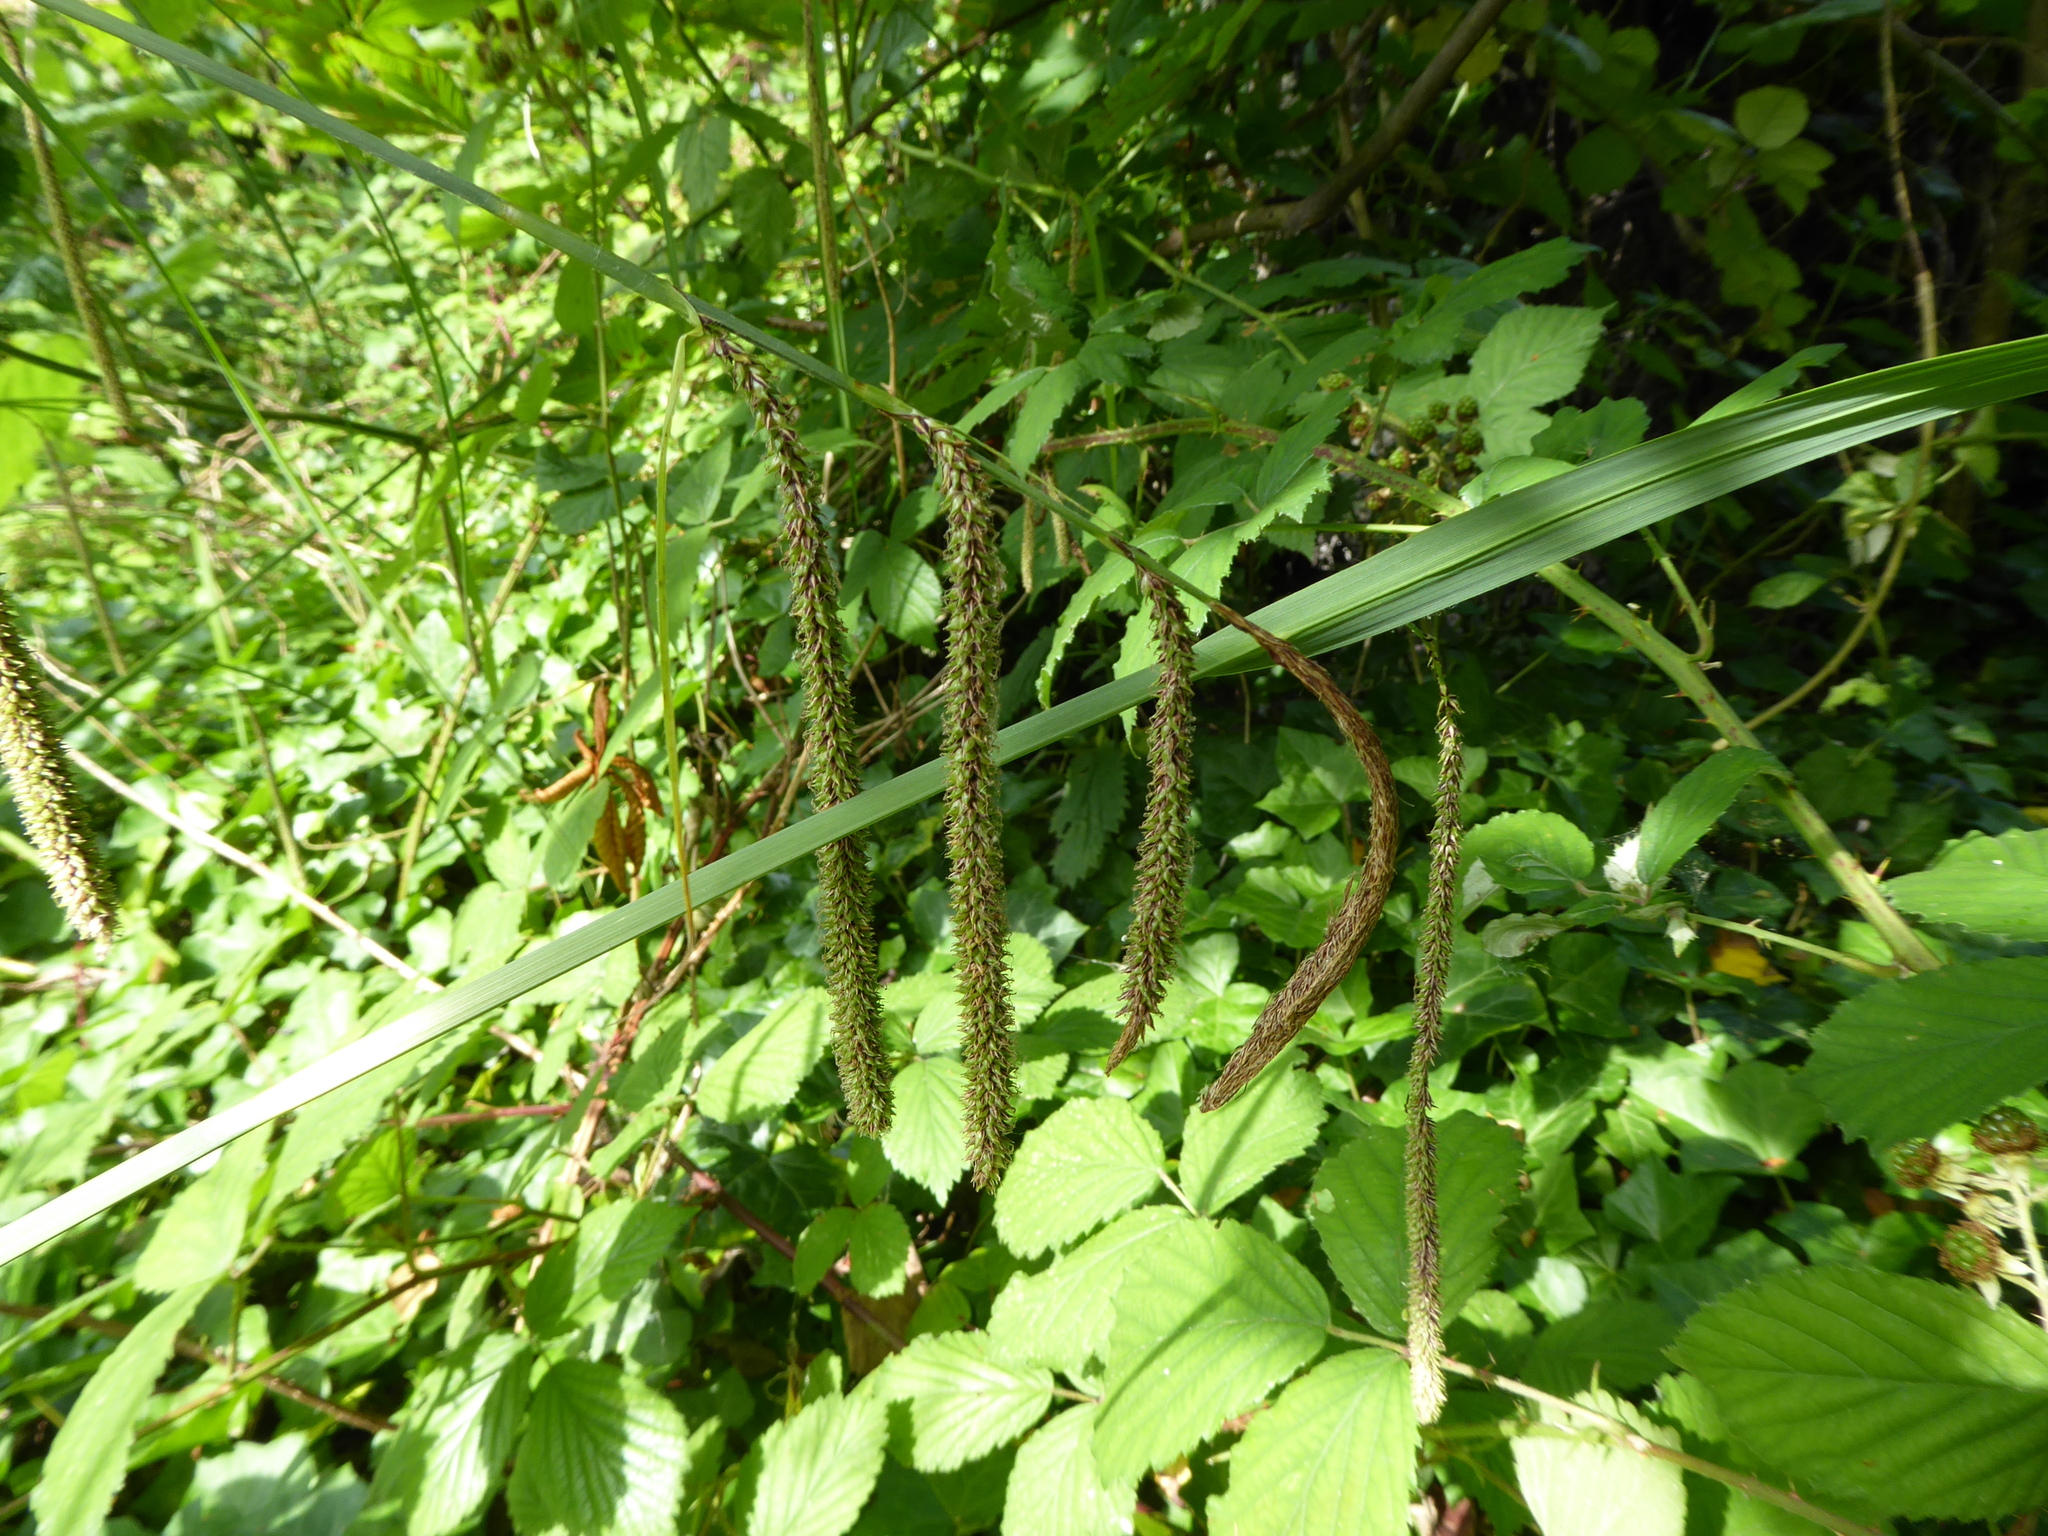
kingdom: Plantae
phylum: Tracheophyta
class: Liliopsida
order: Poales
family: Cyperaceae
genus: Carex
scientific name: Carex pendula
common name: Pendulous sedge
